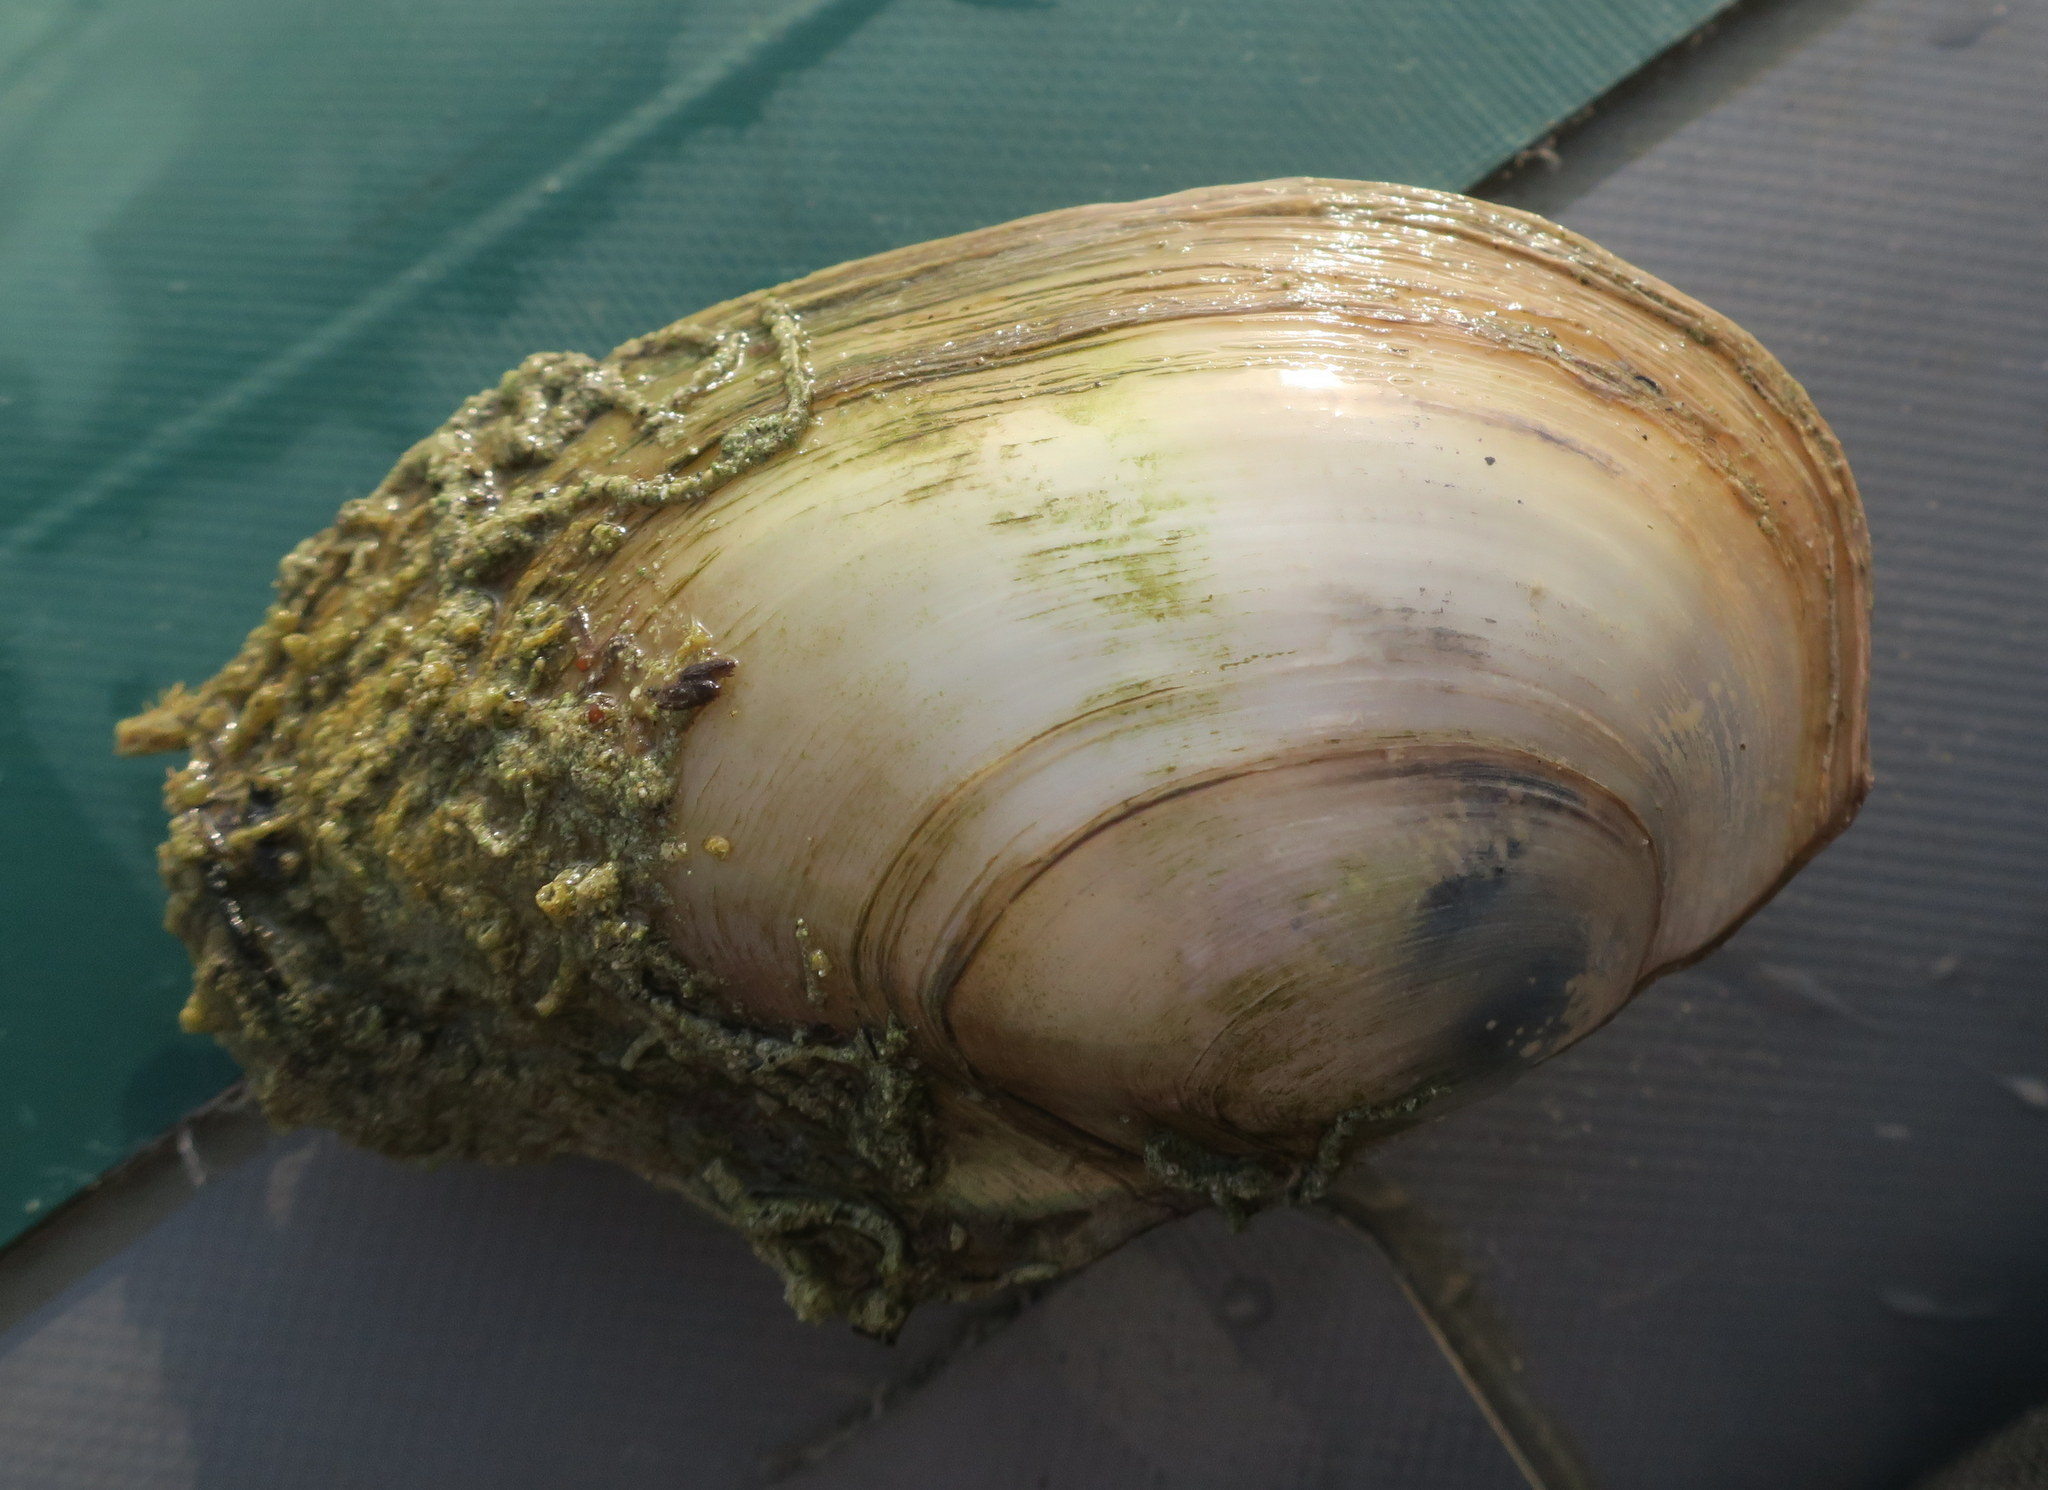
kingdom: Animalia
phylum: Mollusca
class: Bivalvia
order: Unionida
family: Unionidae
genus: Anodonta
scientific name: Anodonta anatina
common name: Duck mussel
